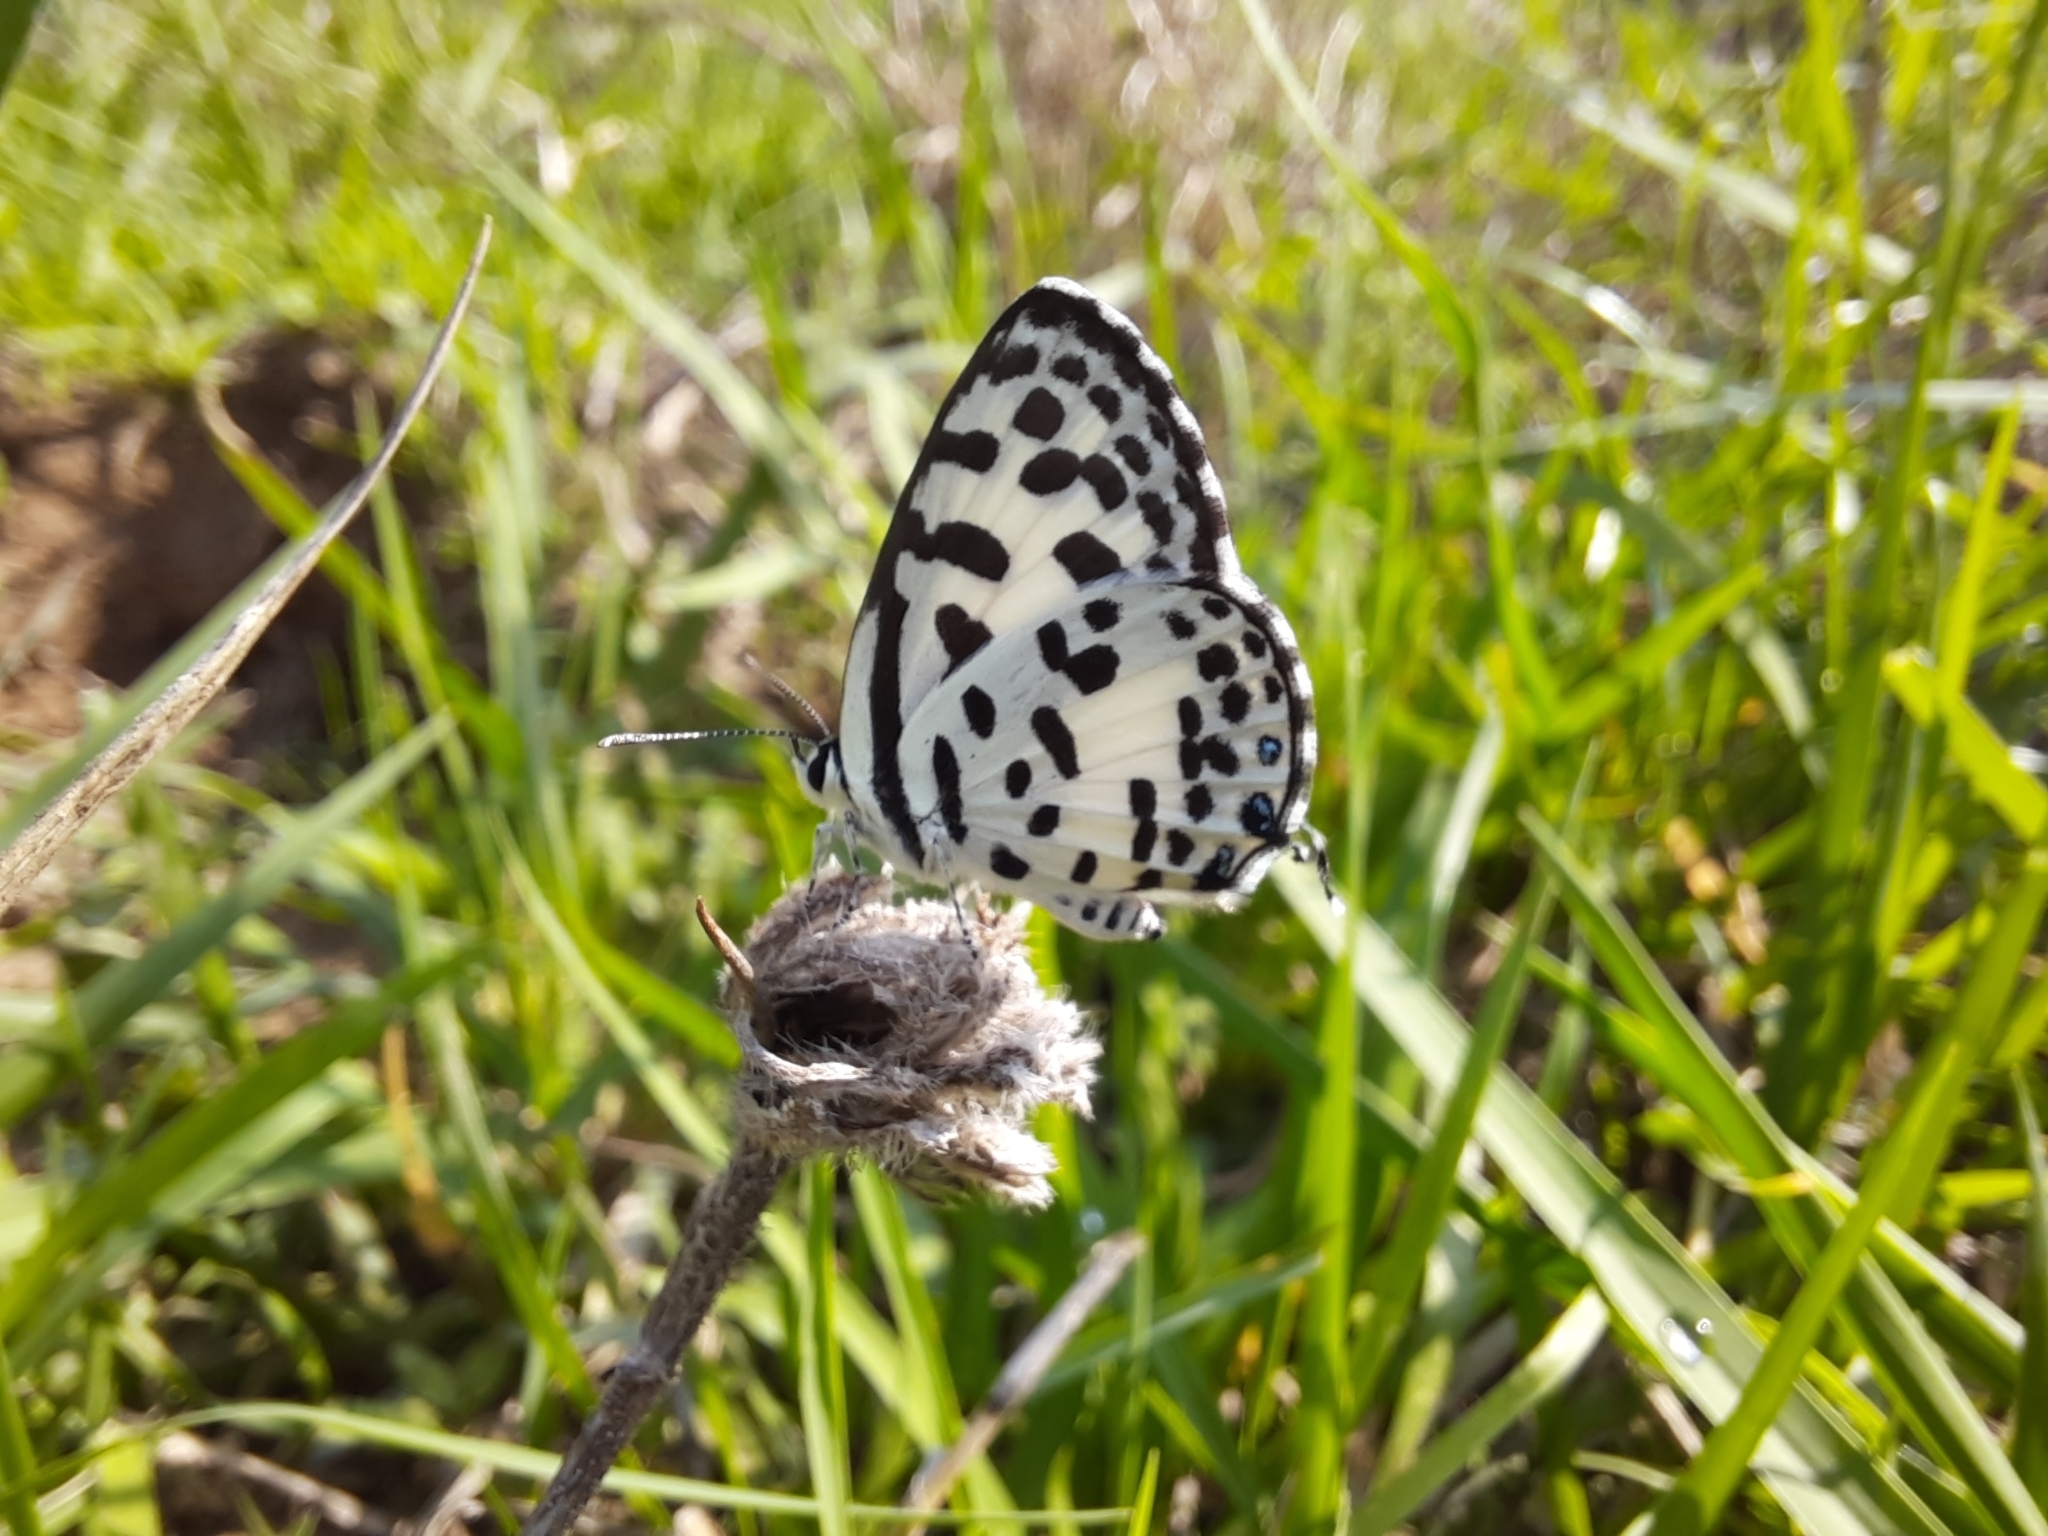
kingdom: Animalia
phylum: Arthropoda
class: Insecta
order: Lepidoptera
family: Lycaenidae
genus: Castalius
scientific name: Castalius rosimon
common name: Common pierrot
